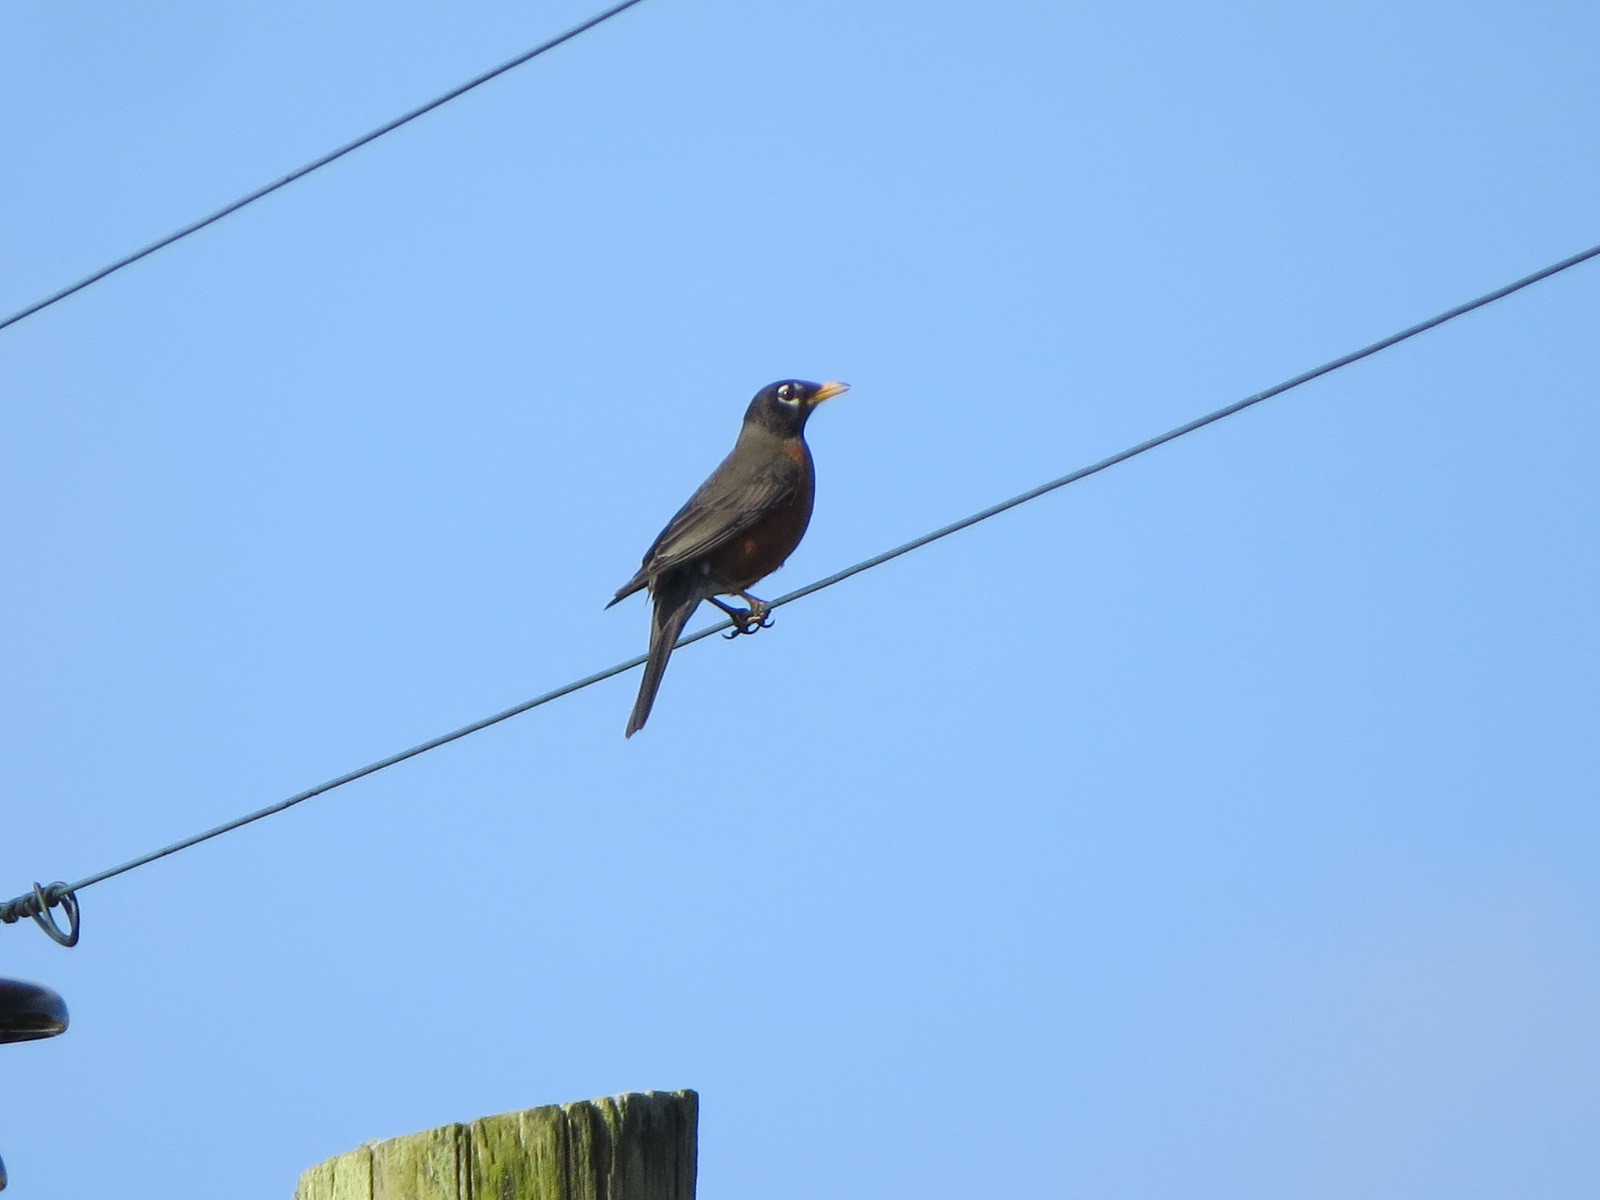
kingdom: Animalia
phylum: Chordata
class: Aves
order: Passeriformes
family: Turdidae
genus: Turdus
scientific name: Turdus migratorius
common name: American robin
